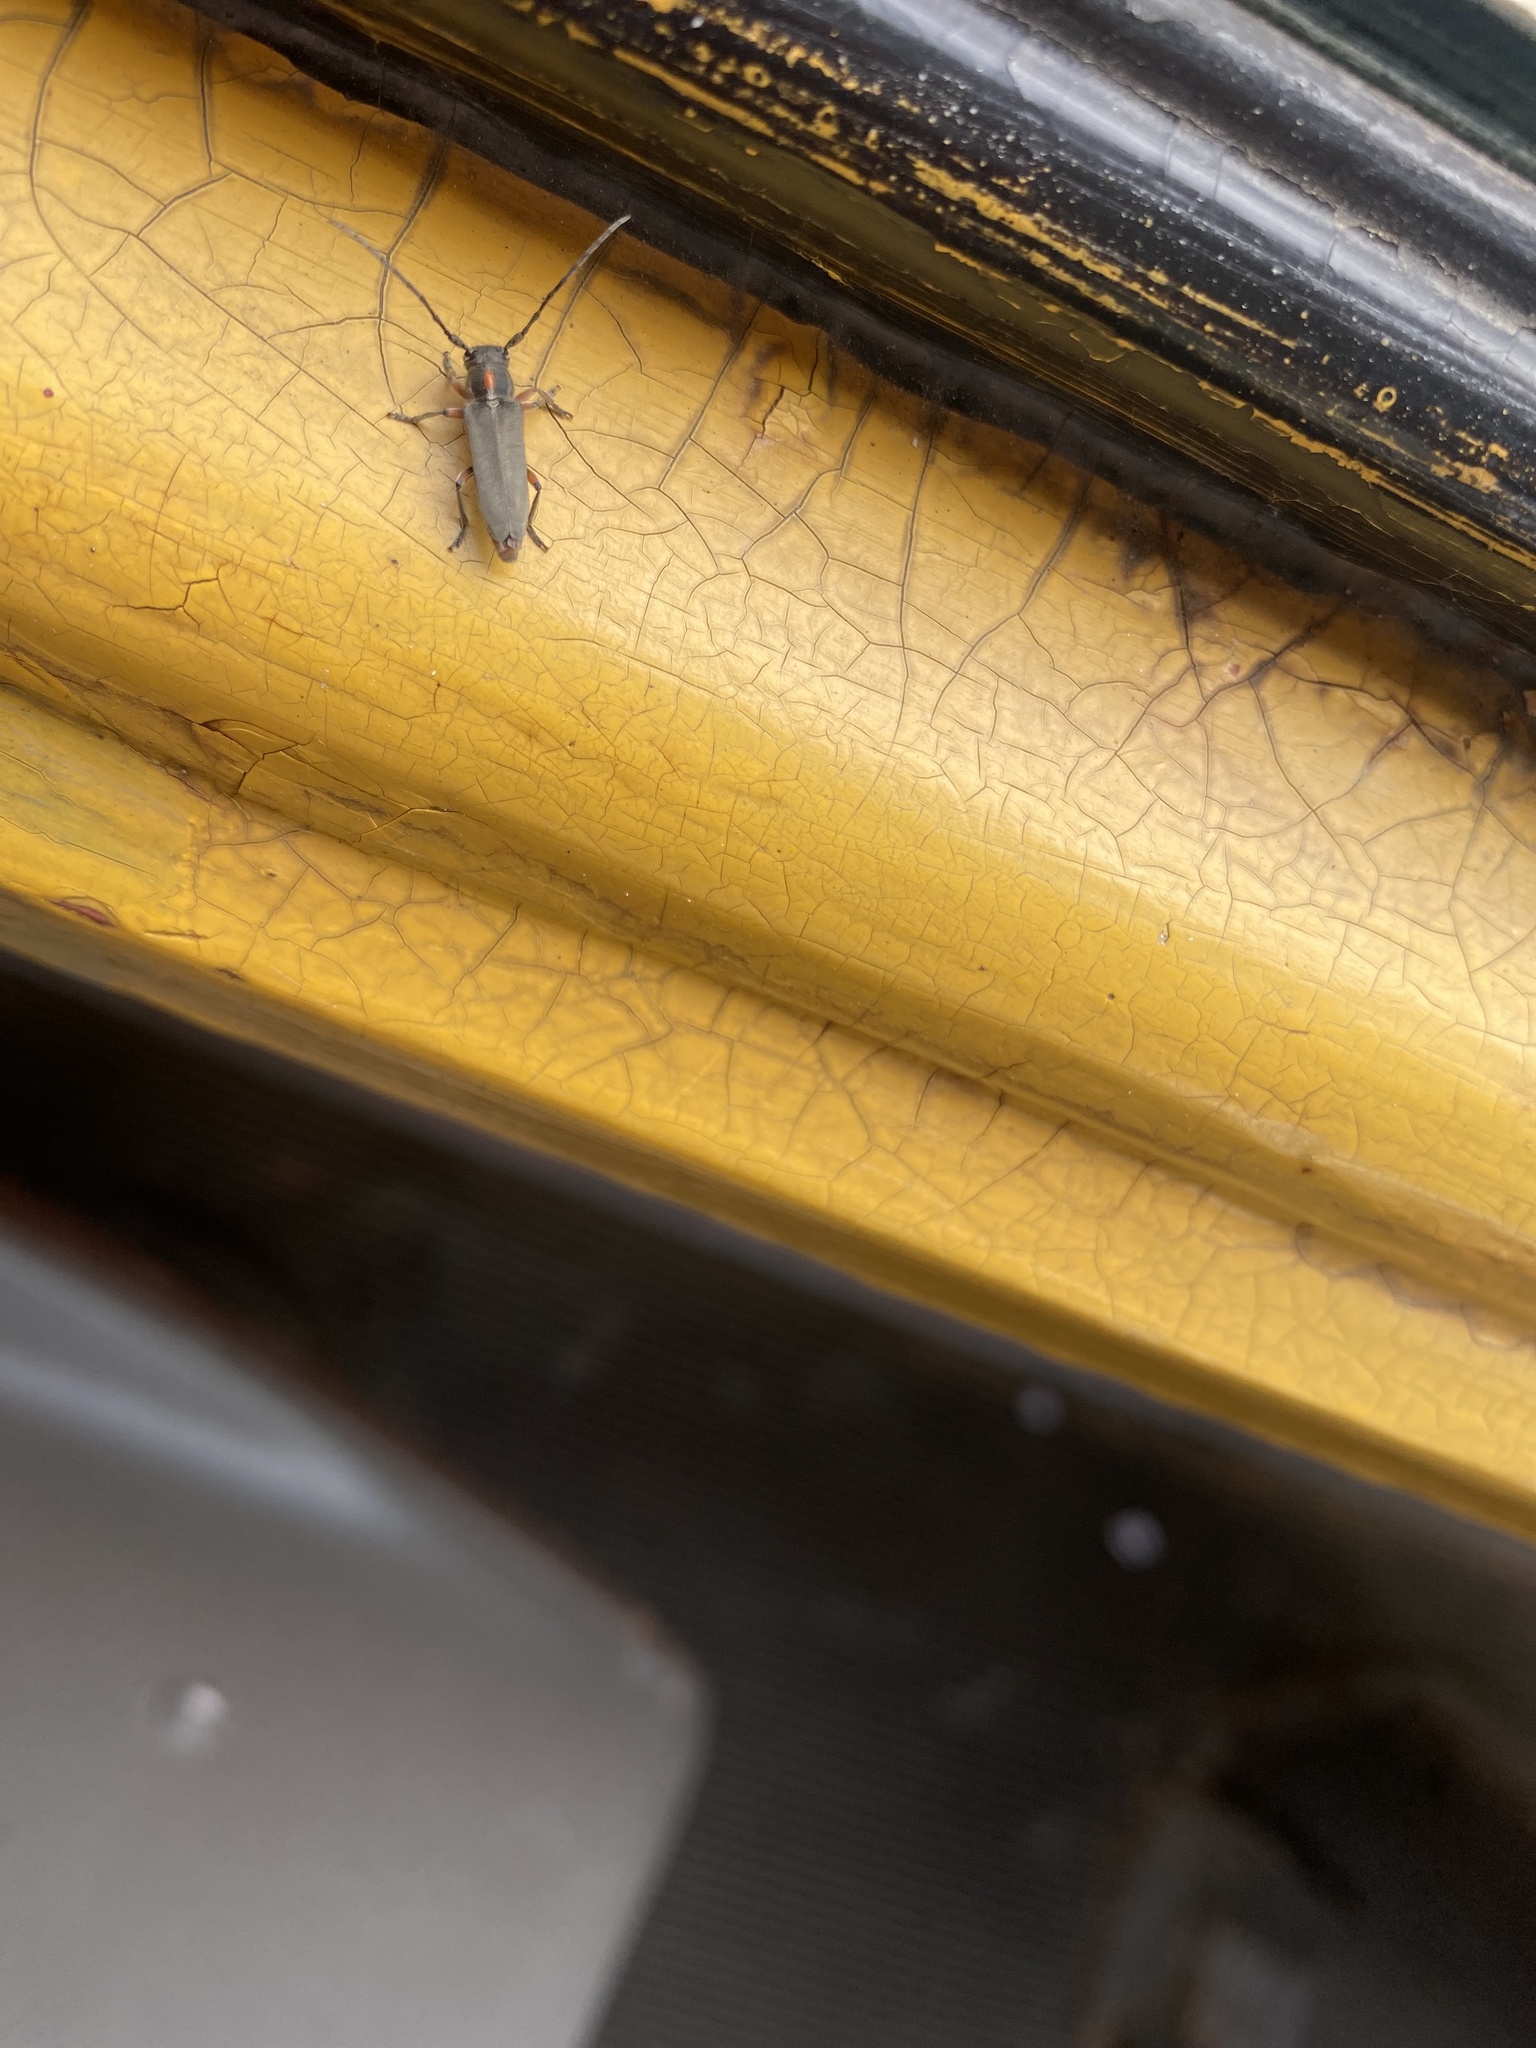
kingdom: Animalia
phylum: Arthropoda
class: Insecta
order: Coleoptera
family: Cerambycidae
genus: Phytoecia
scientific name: Phytoecia pustulata
